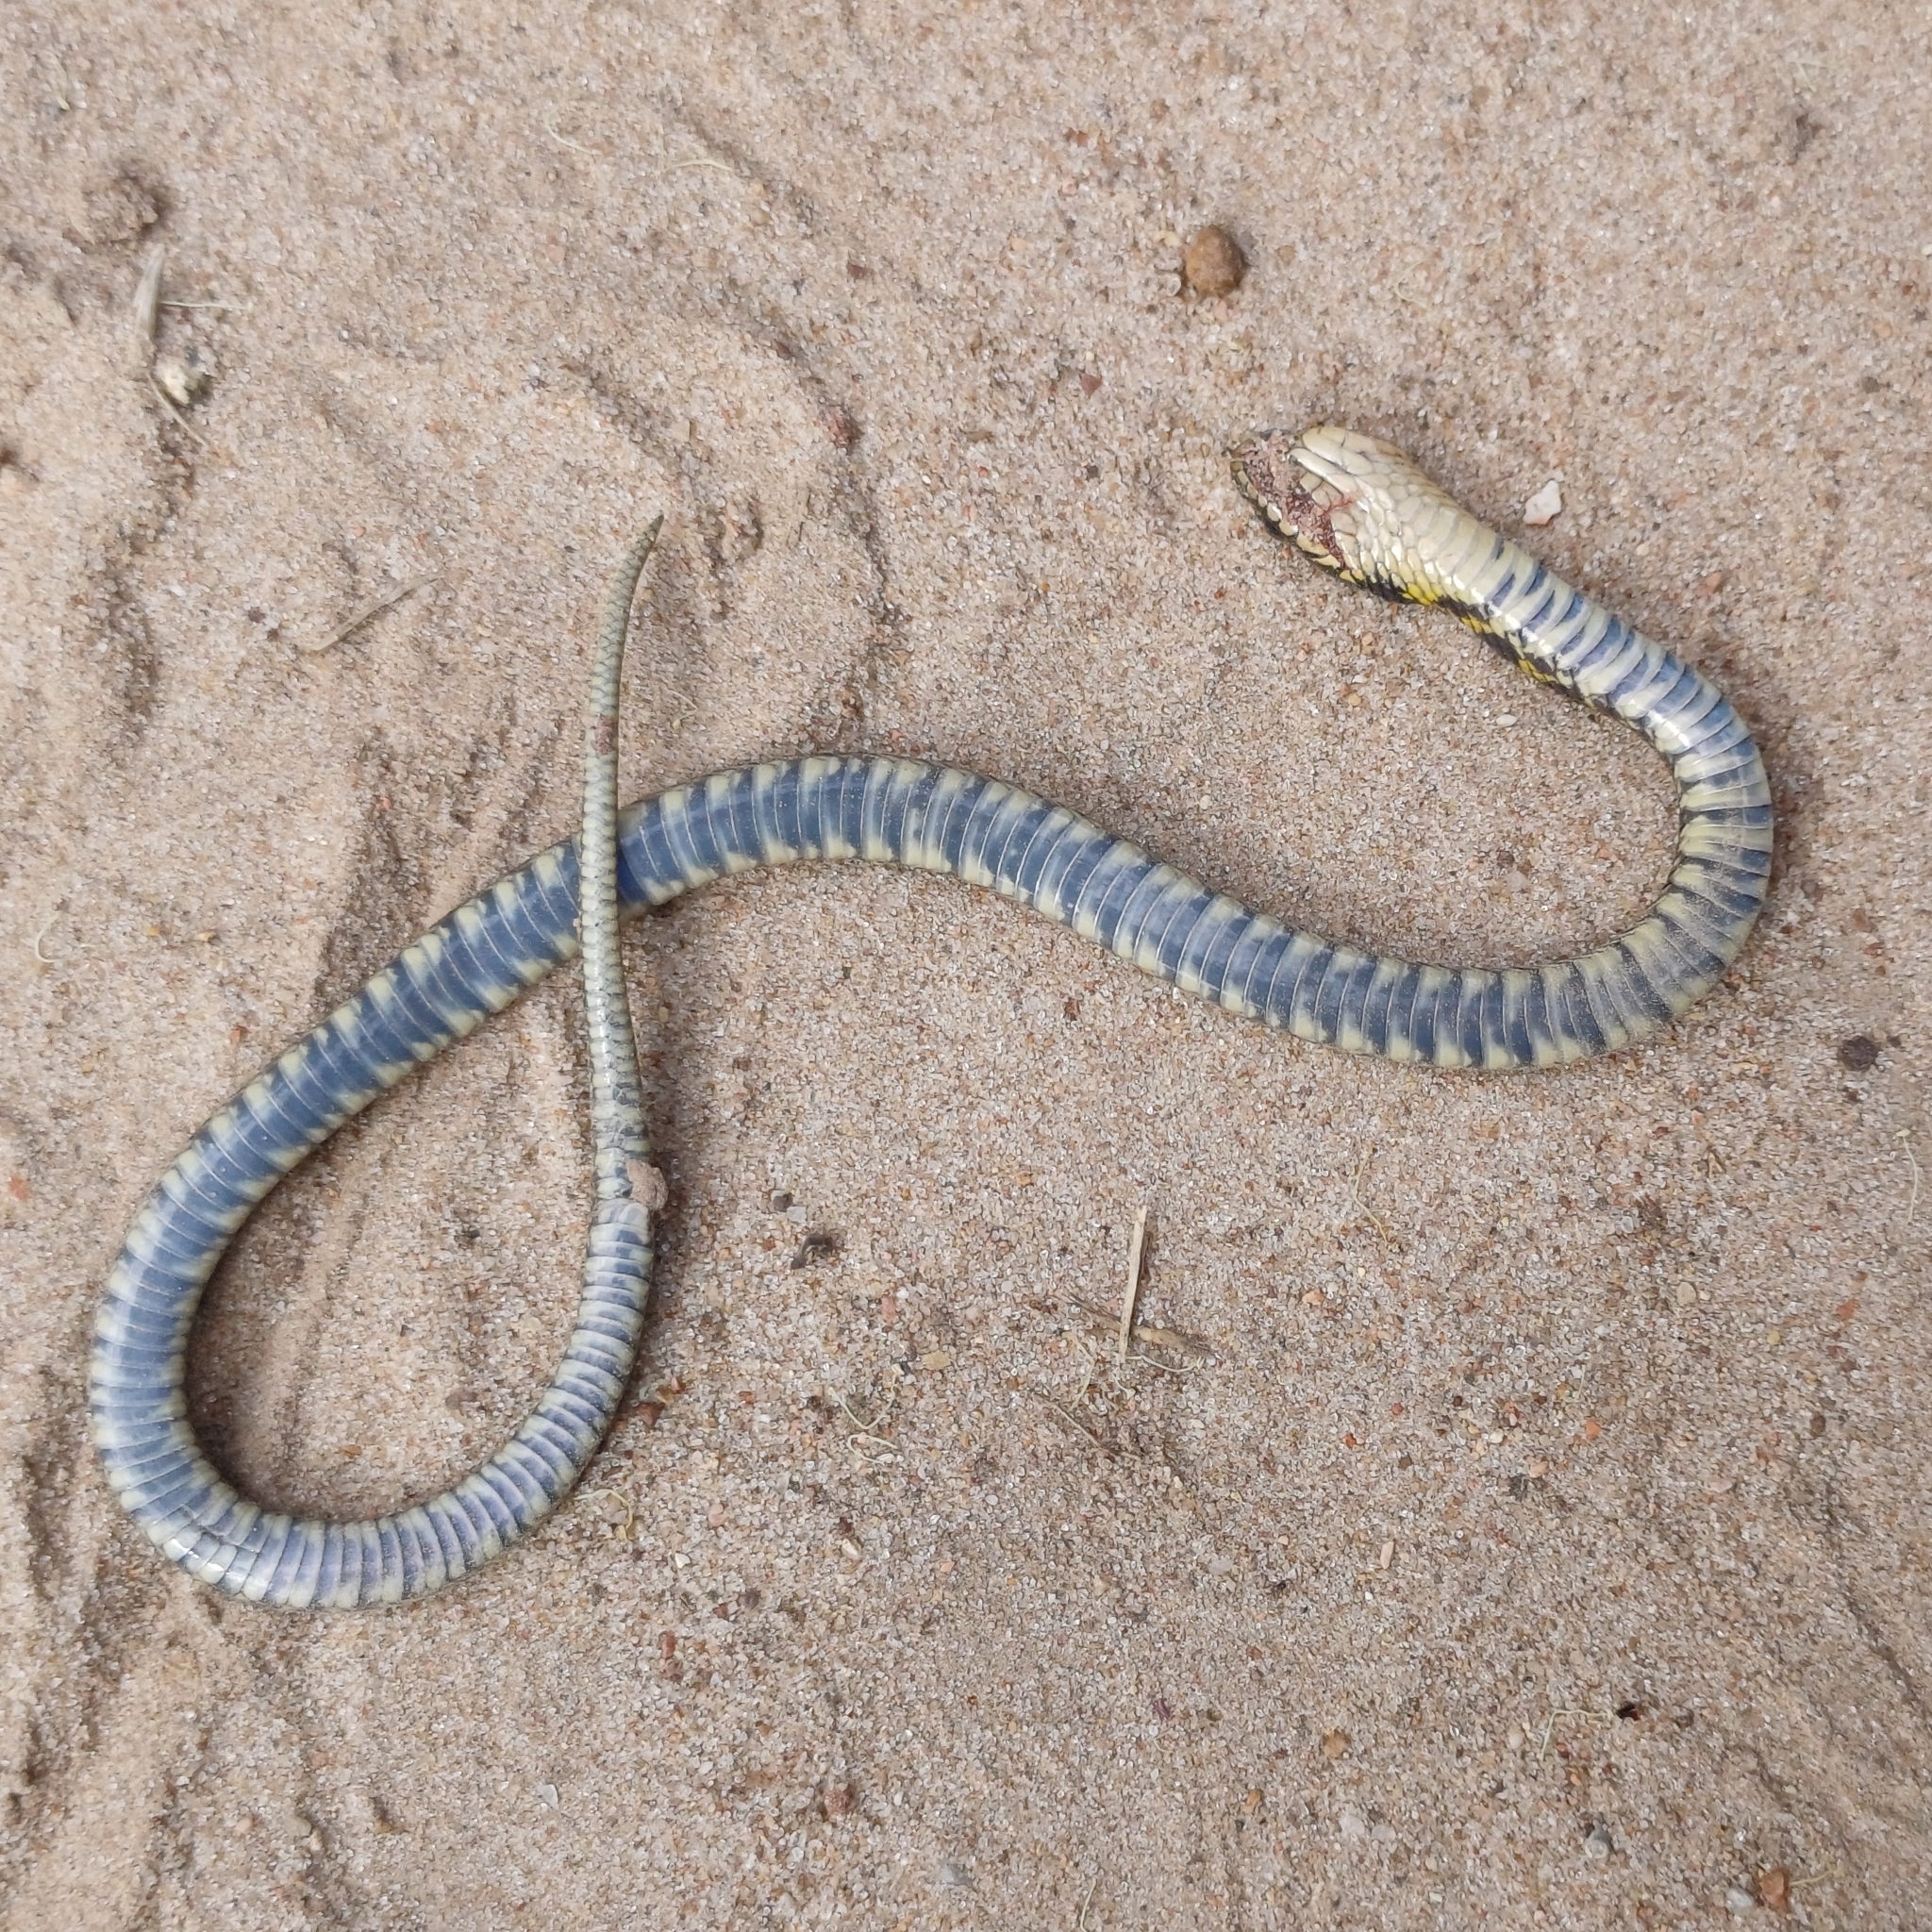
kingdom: Animalia
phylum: Chordata
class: Squamata
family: Colubridae
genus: Erythrolamprus
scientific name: Erythrolamprus poecilogyrus
